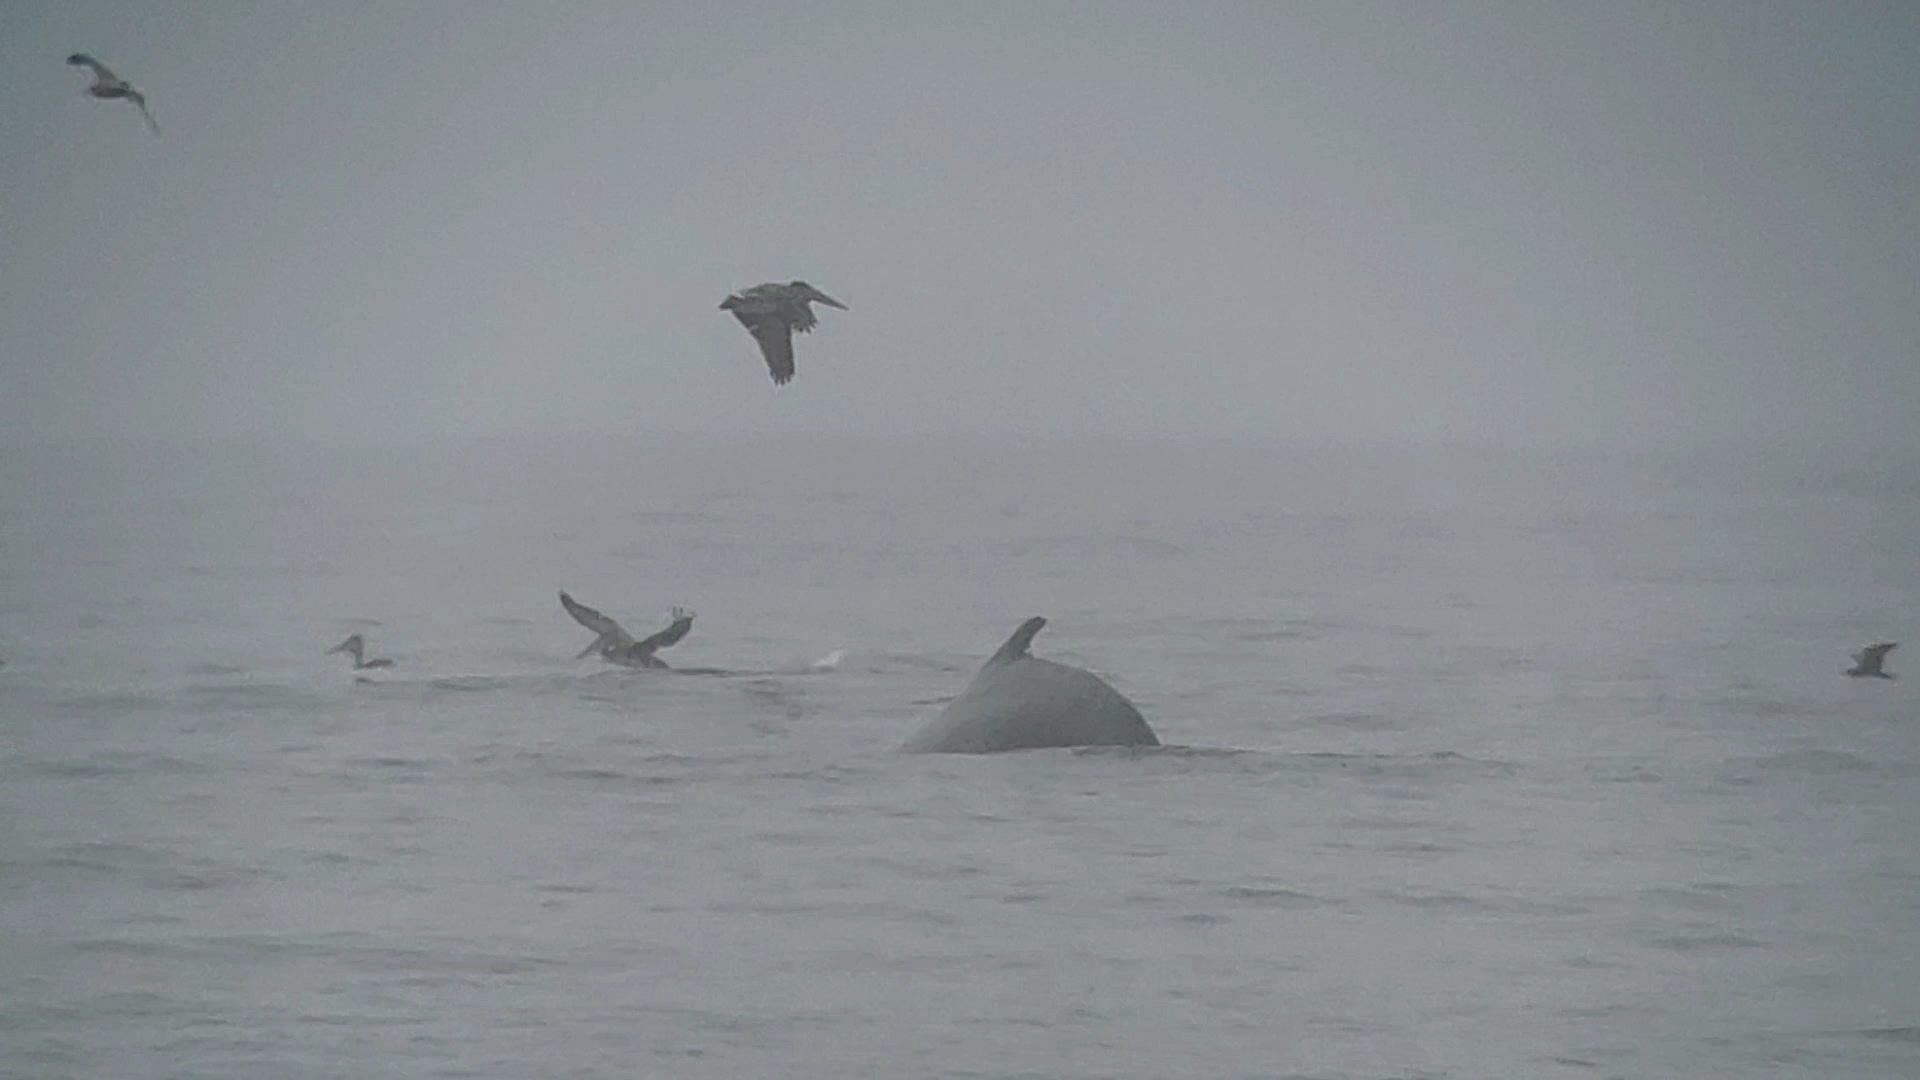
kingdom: Animalia
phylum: Chordata
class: Mammalia
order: Cetacea
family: Balaenopteridae
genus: Megaptera
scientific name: Megaptera novaeangliae
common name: Humpback whale
